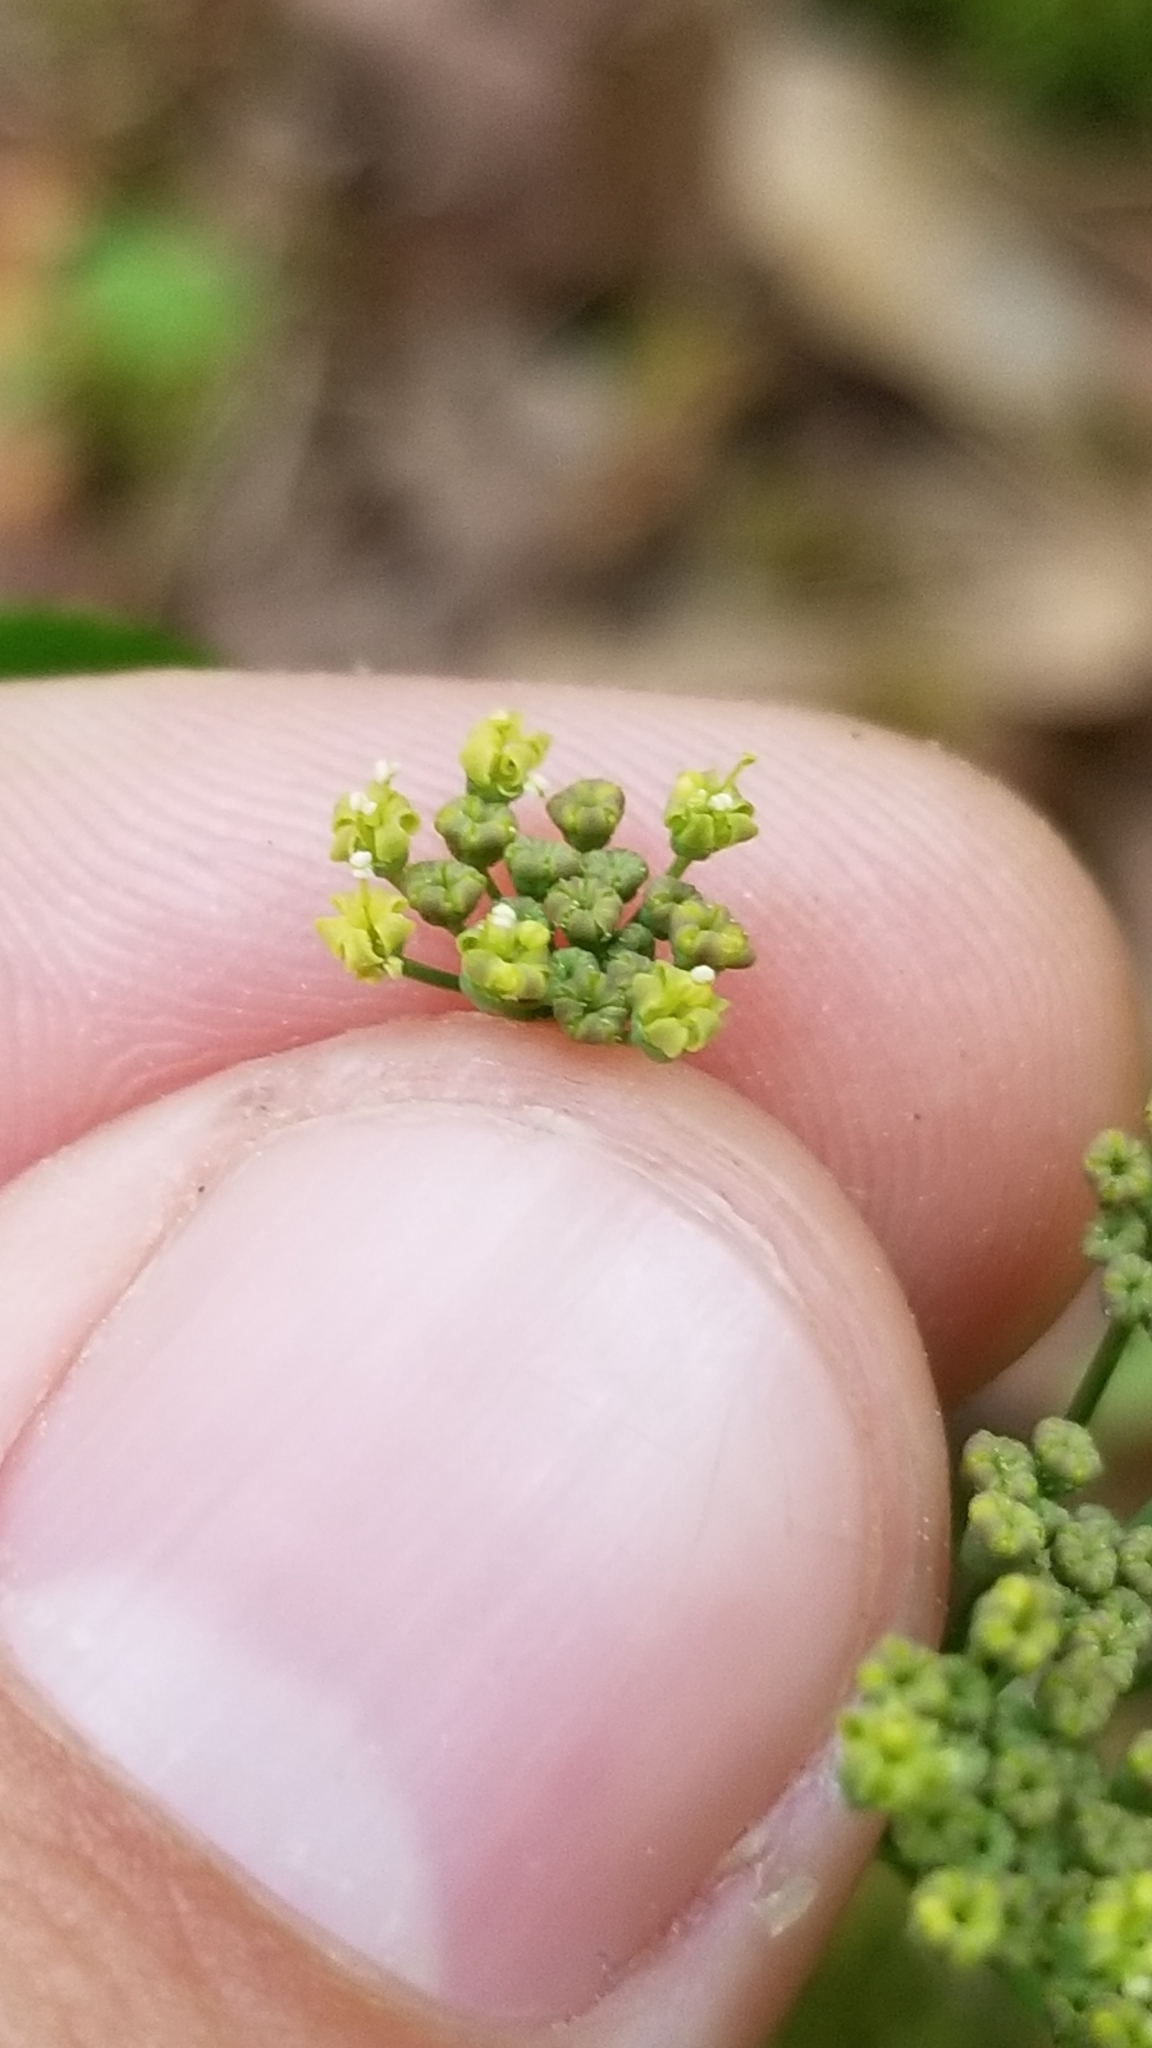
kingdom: Plantae
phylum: Tracheophyta
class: Magnoliopsida
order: Apiales
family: Apiaceae
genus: Thaspium
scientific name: Thaspium trifoliatum
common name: Purple meadow-parsnip
